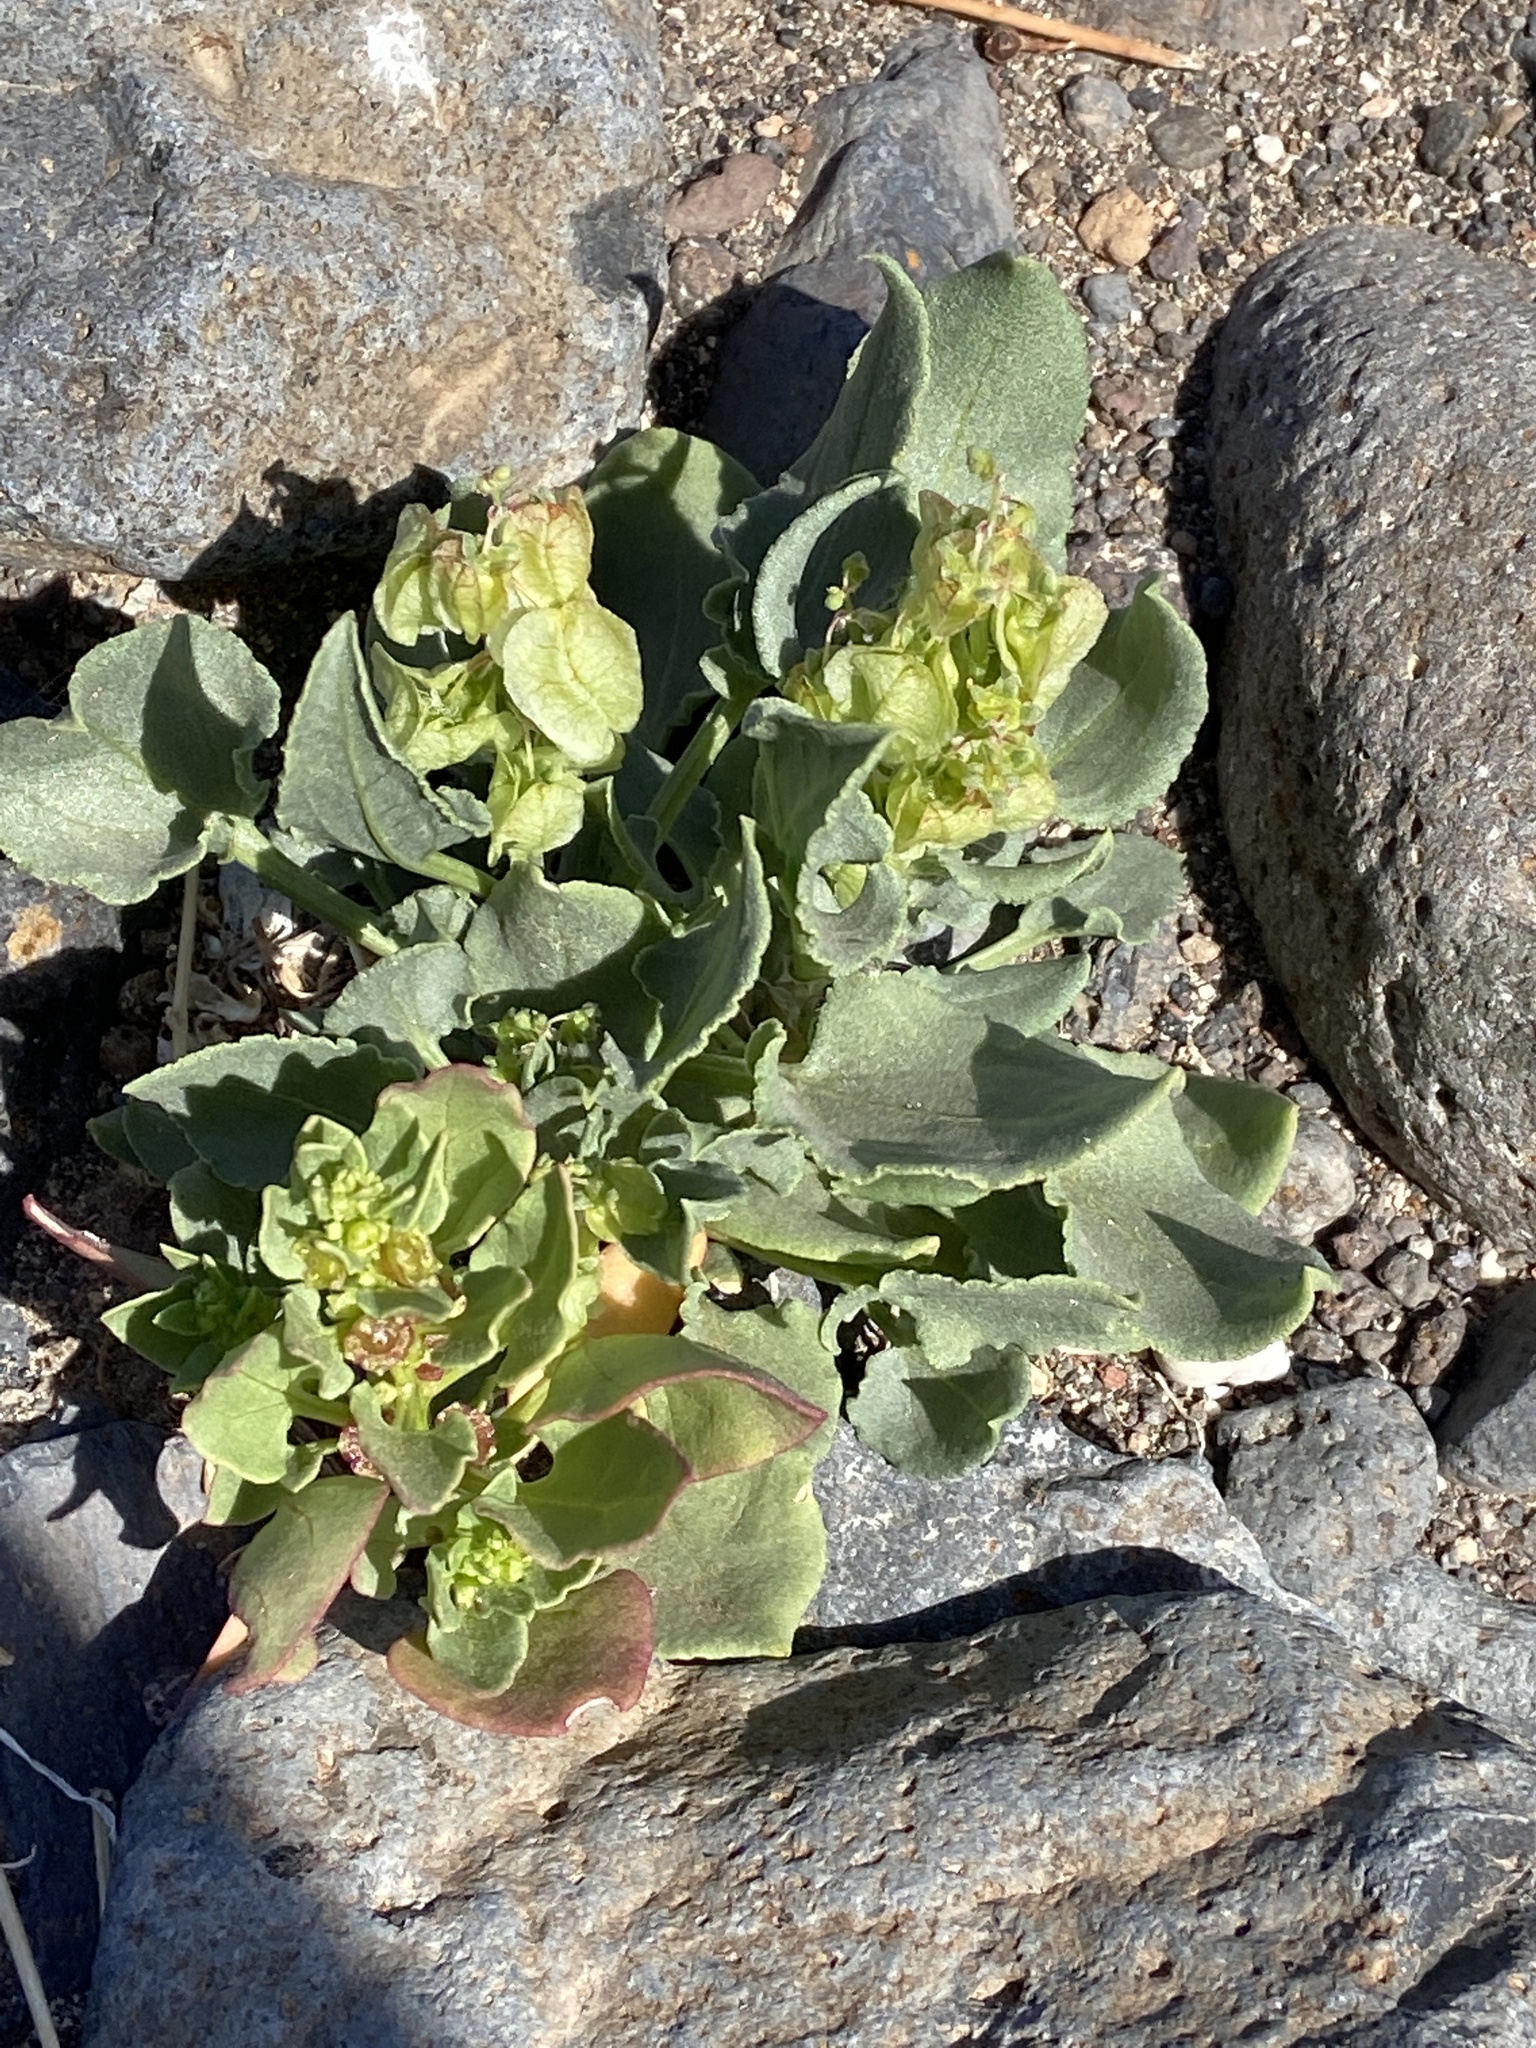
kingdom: Plantae
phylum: Tracheophyta
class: Magnoliopsida
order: Caryophyllales
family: Polygonaceae
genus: Rumex
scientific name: Rumex vesicarius
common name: Bladder dock
